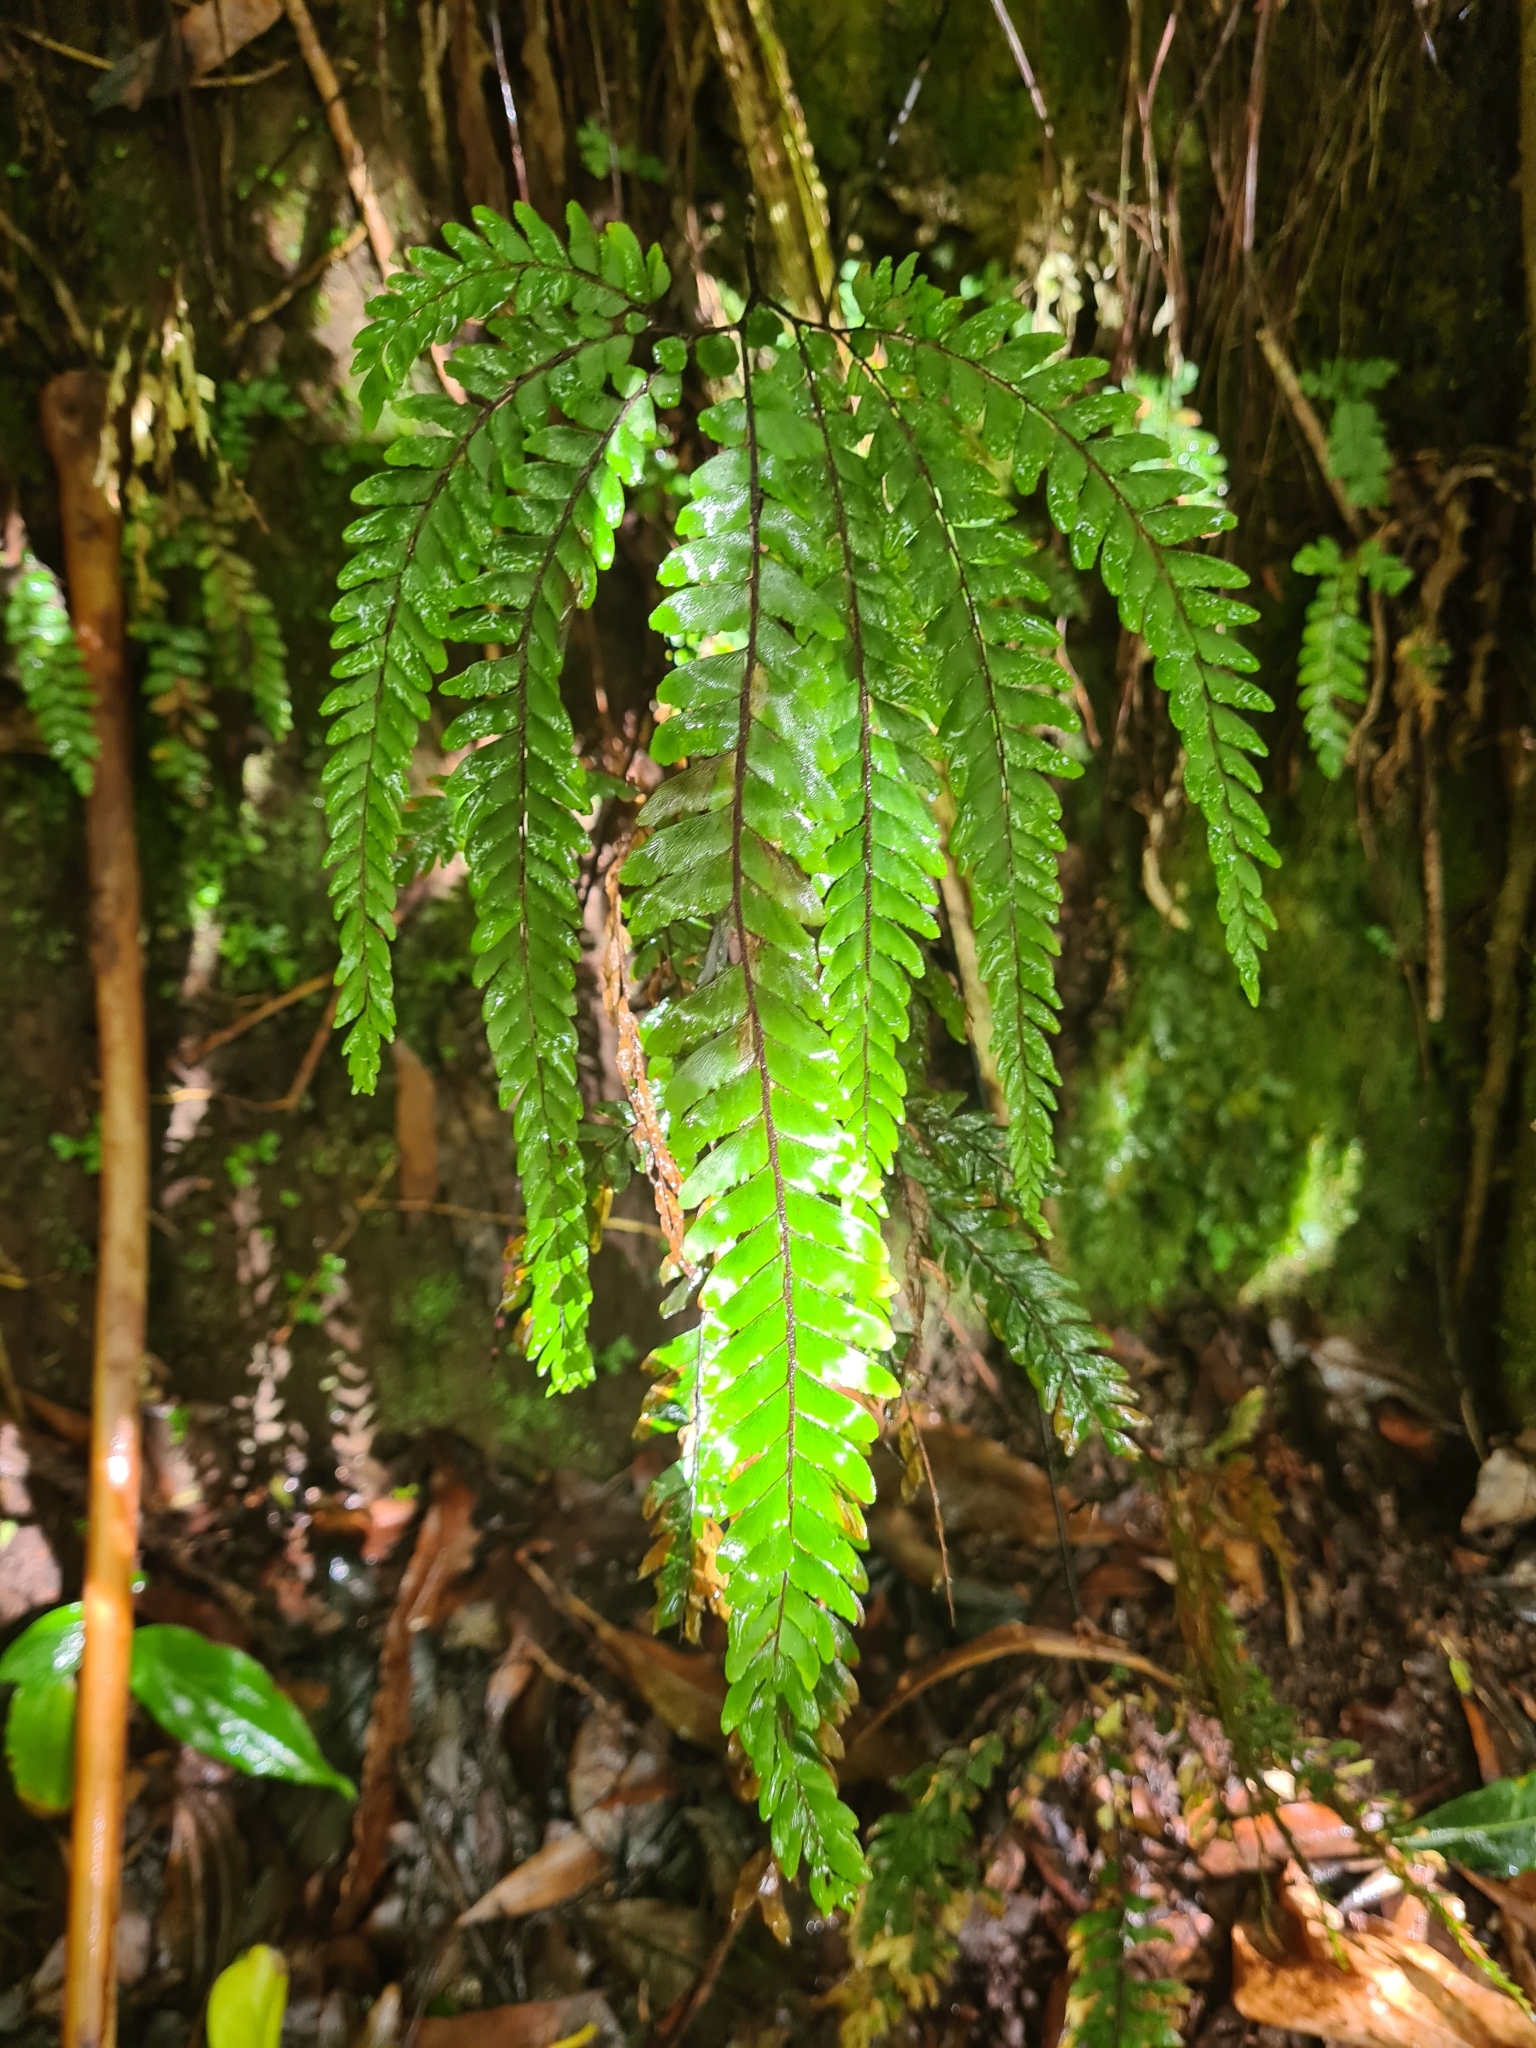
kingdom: Plantae
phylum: Tracheophyta
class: Polypodiopsida
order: Polypodiales
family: Pteridaceae
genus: Adiantum
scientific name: Adiantum hispidulum
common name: Rough maidenhair
